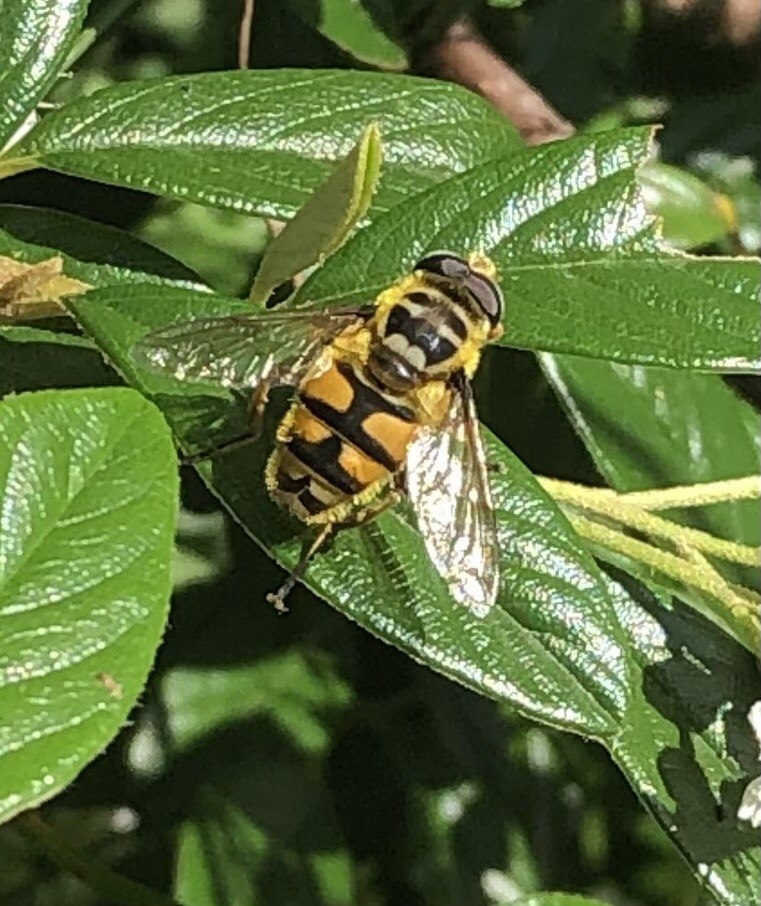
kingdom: Animalia
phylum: Arthropoda
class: Insecta
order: Diptera
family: Syrphidae
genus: Myathropa
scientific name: Myathropa florea
